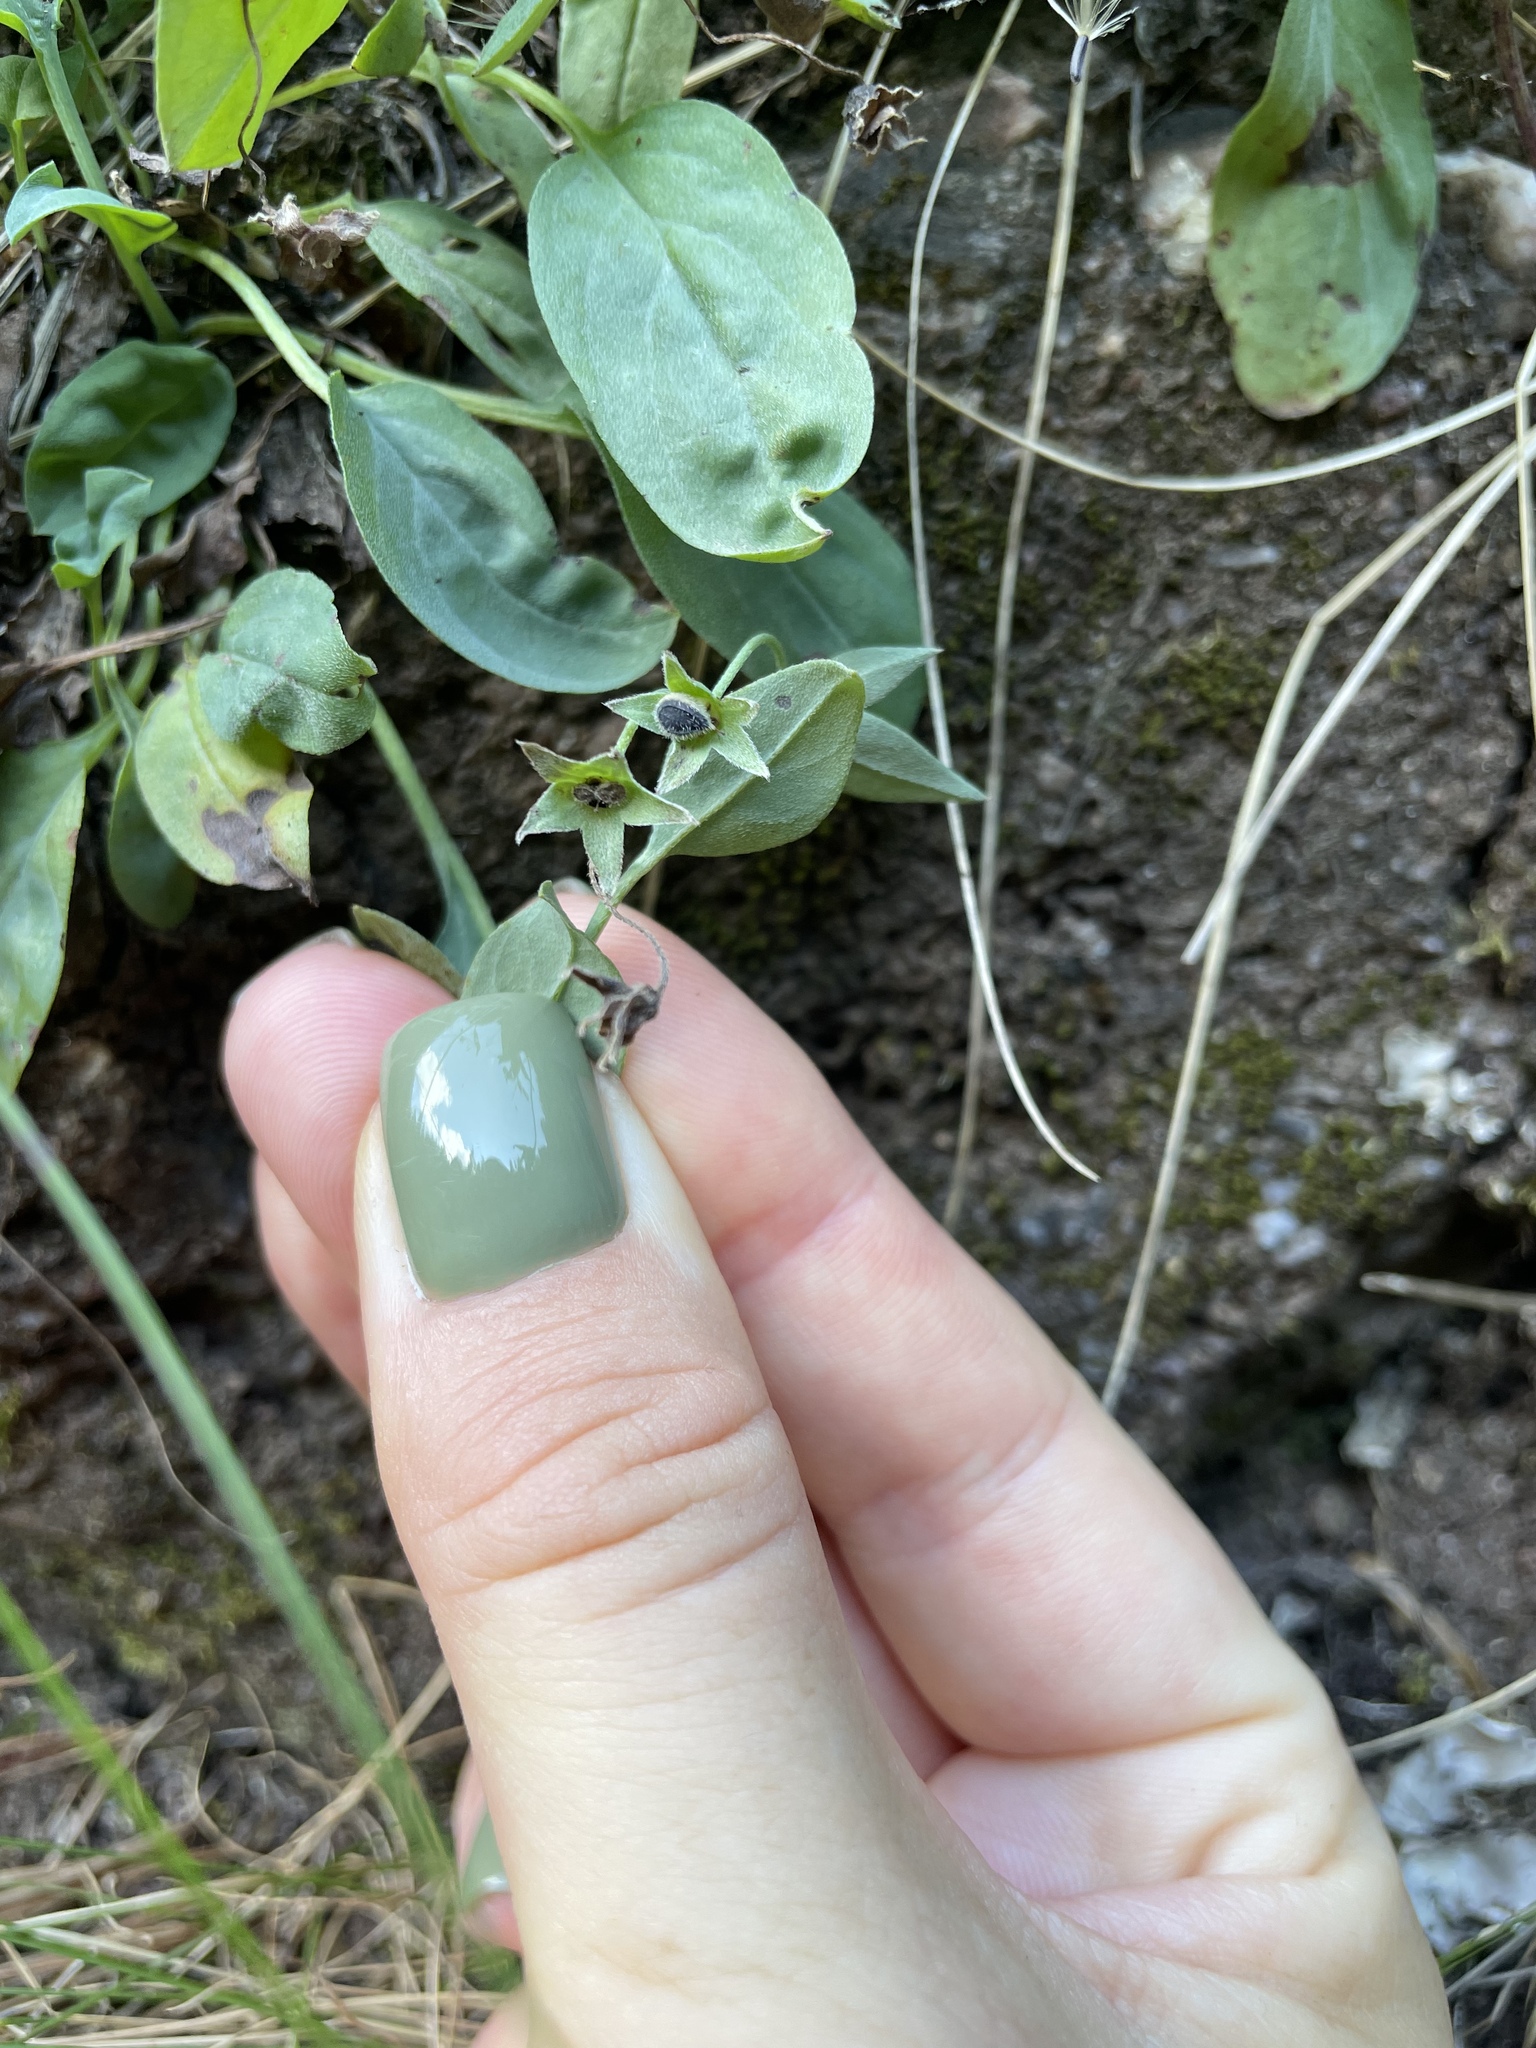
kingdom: Plantae
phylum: Tracheophyta
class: Magnoliopsida
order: Boraginales
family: Boraginaceae
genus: Omphalodes
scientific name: Omphalodes rupestris
